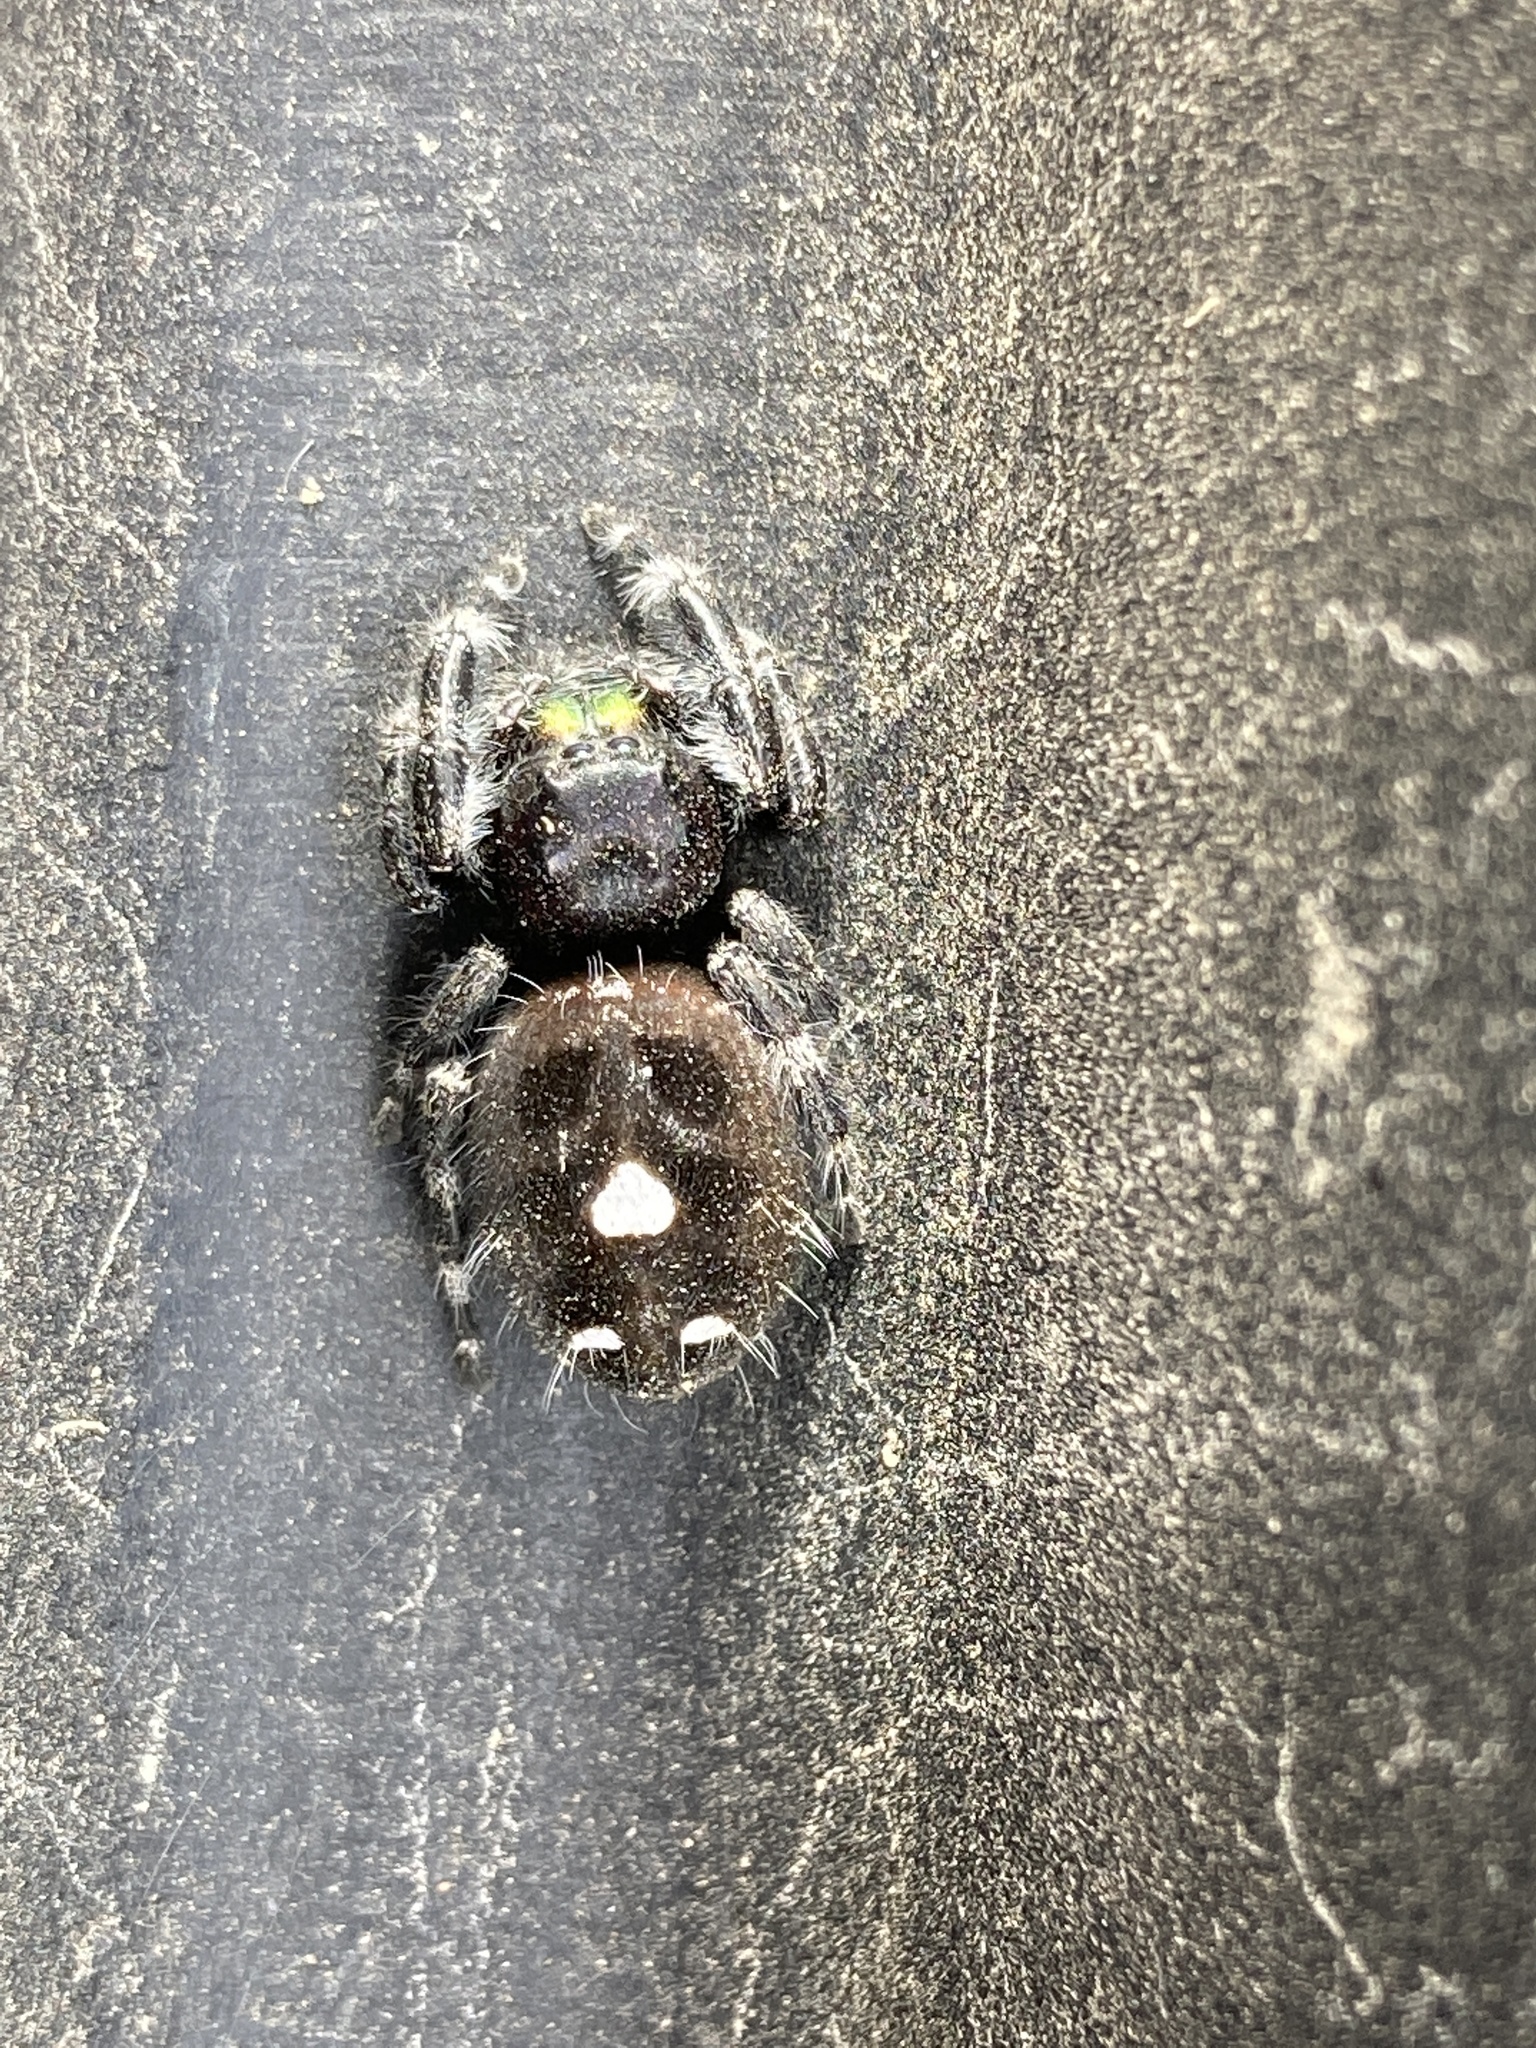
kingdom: Animalia
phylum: Arthropoda
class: Arachnida
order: Araneae
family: Salticidae
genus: Phidippus
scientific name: Phidippus audax
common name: Bold jumper
